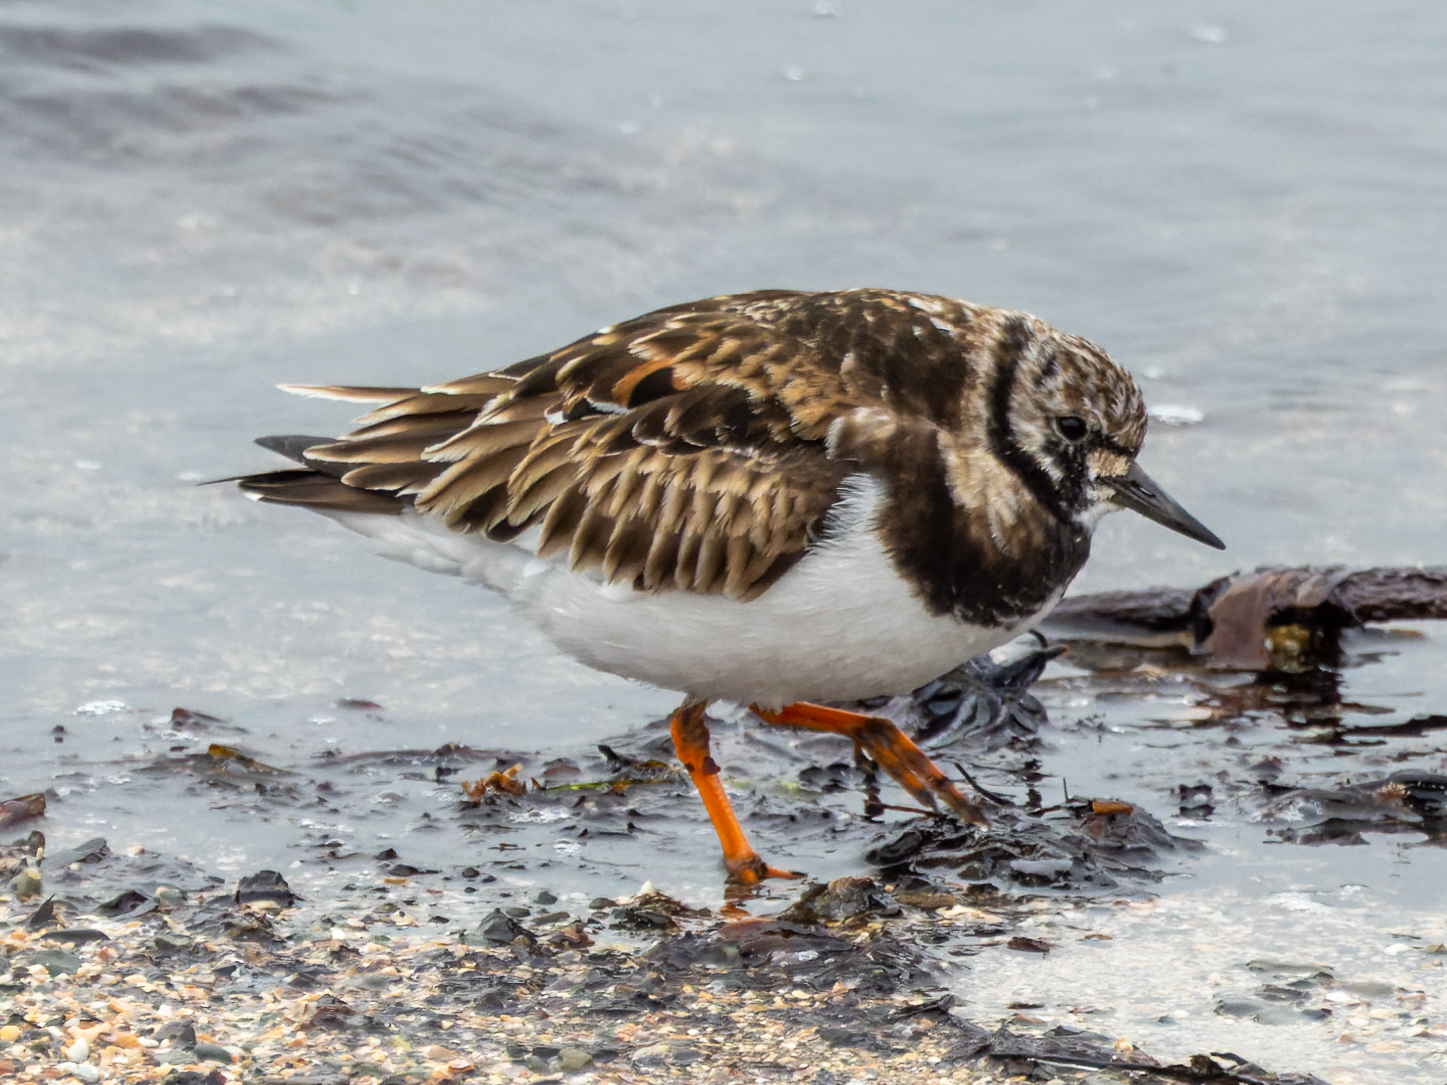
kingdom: Animalia
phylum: Chordata
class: Aves
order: Charadriiformes
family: Scolopacidae
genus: Arenaria
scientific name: Arenaria interpres
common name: Ruddy turnstone
